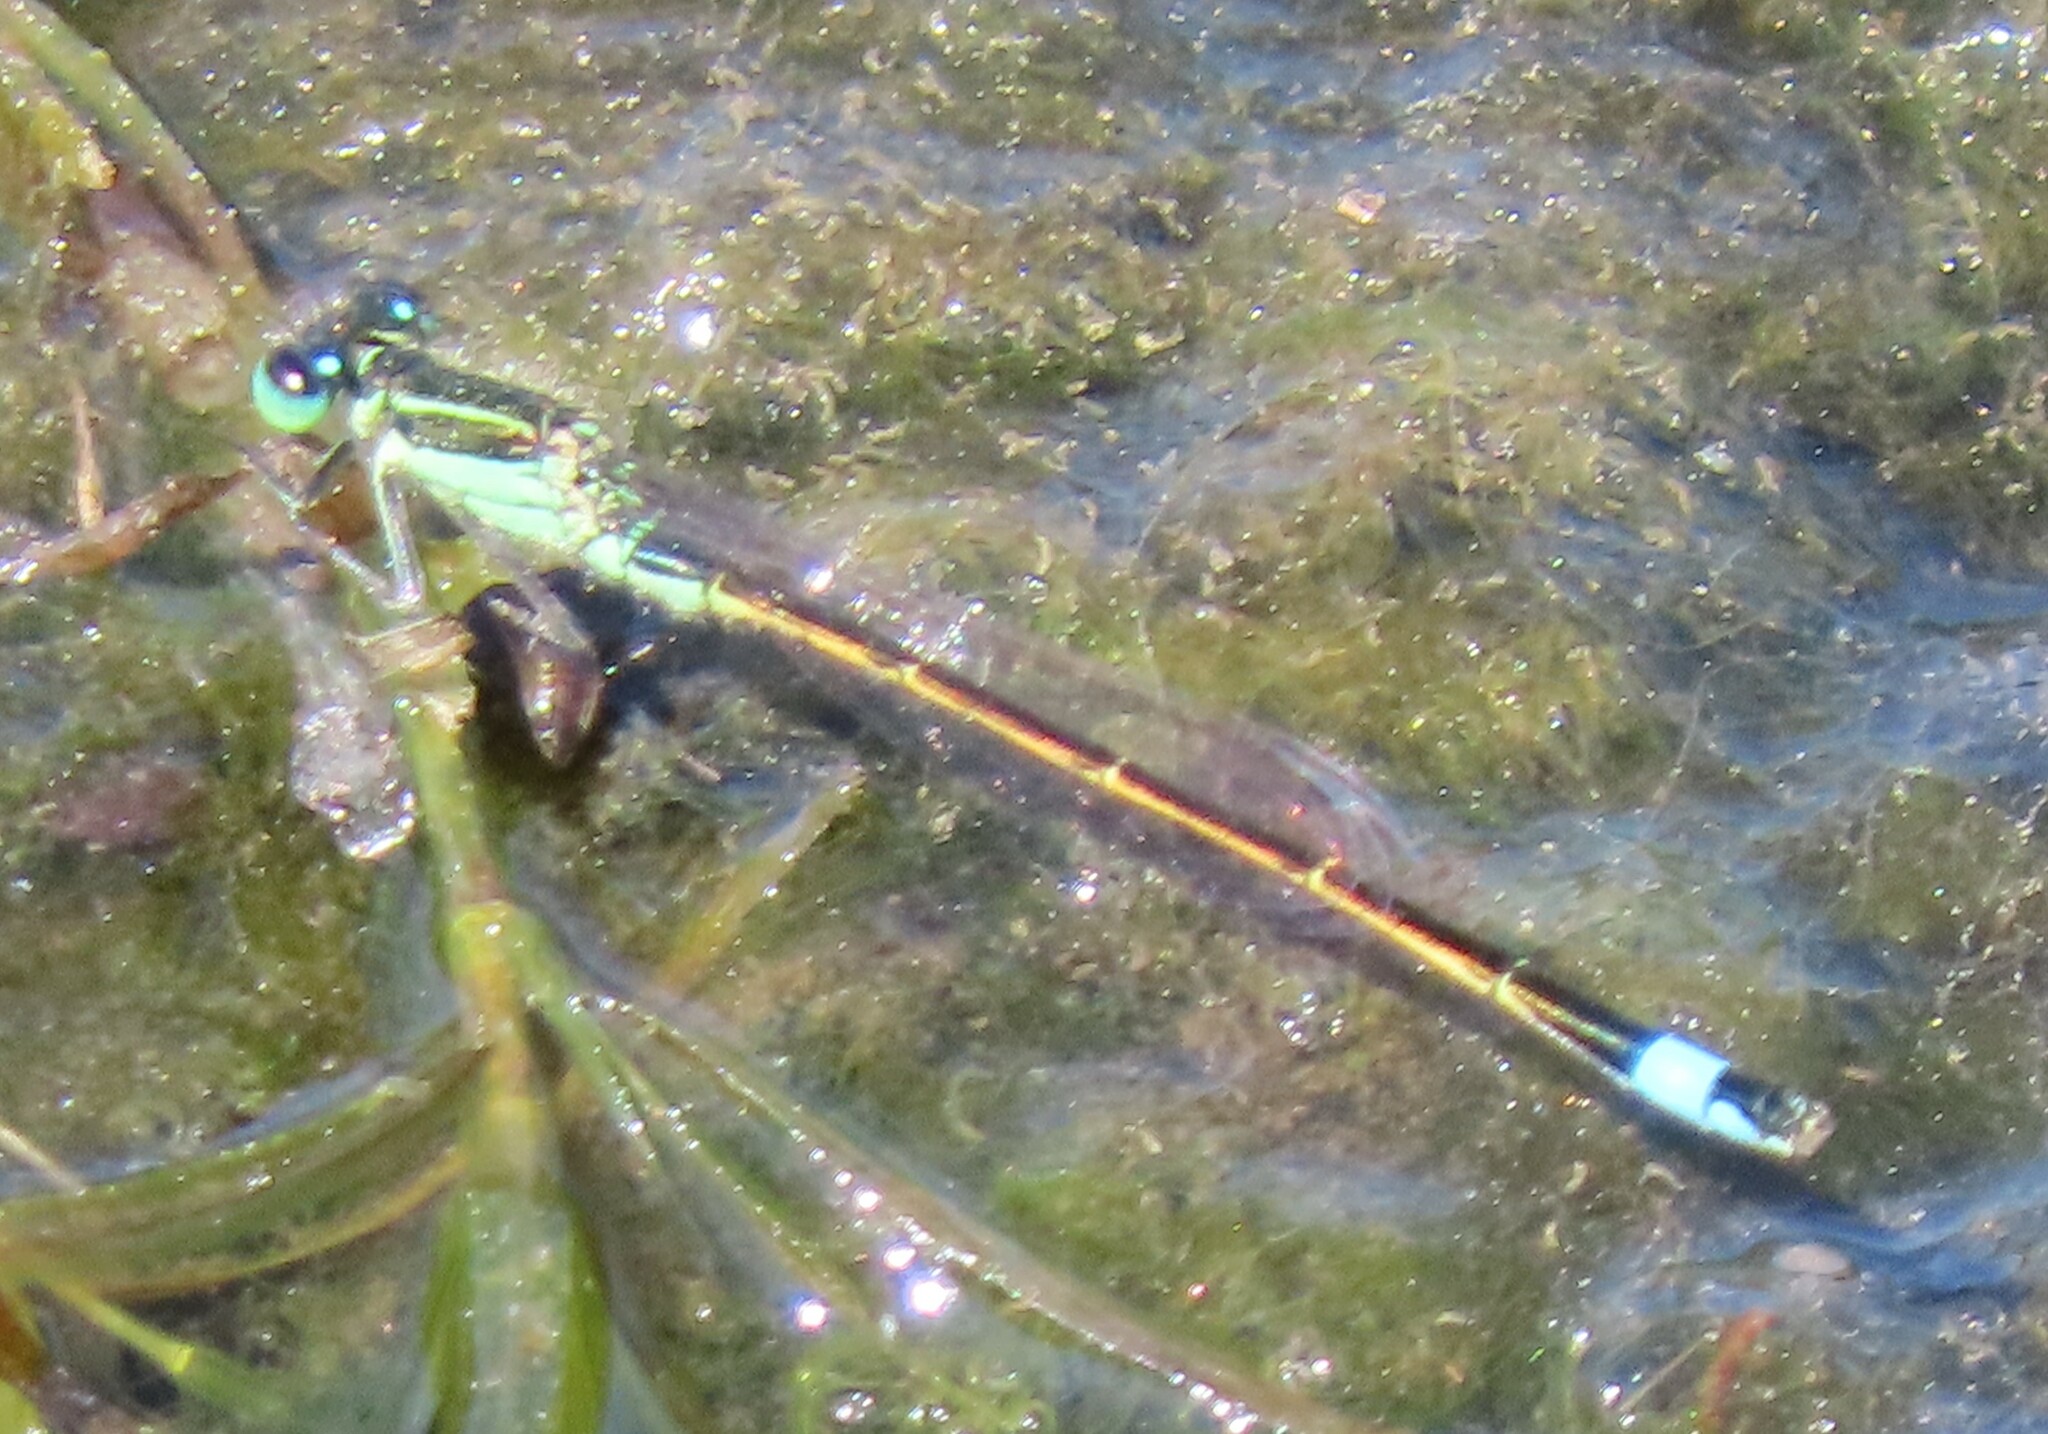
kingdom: Animalia
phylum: Arthropoda
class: Insecta
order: Odonata
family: Coenagrionidae
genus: Ischnura
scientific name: Ischnura ramburii
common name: Rambur's forktail
